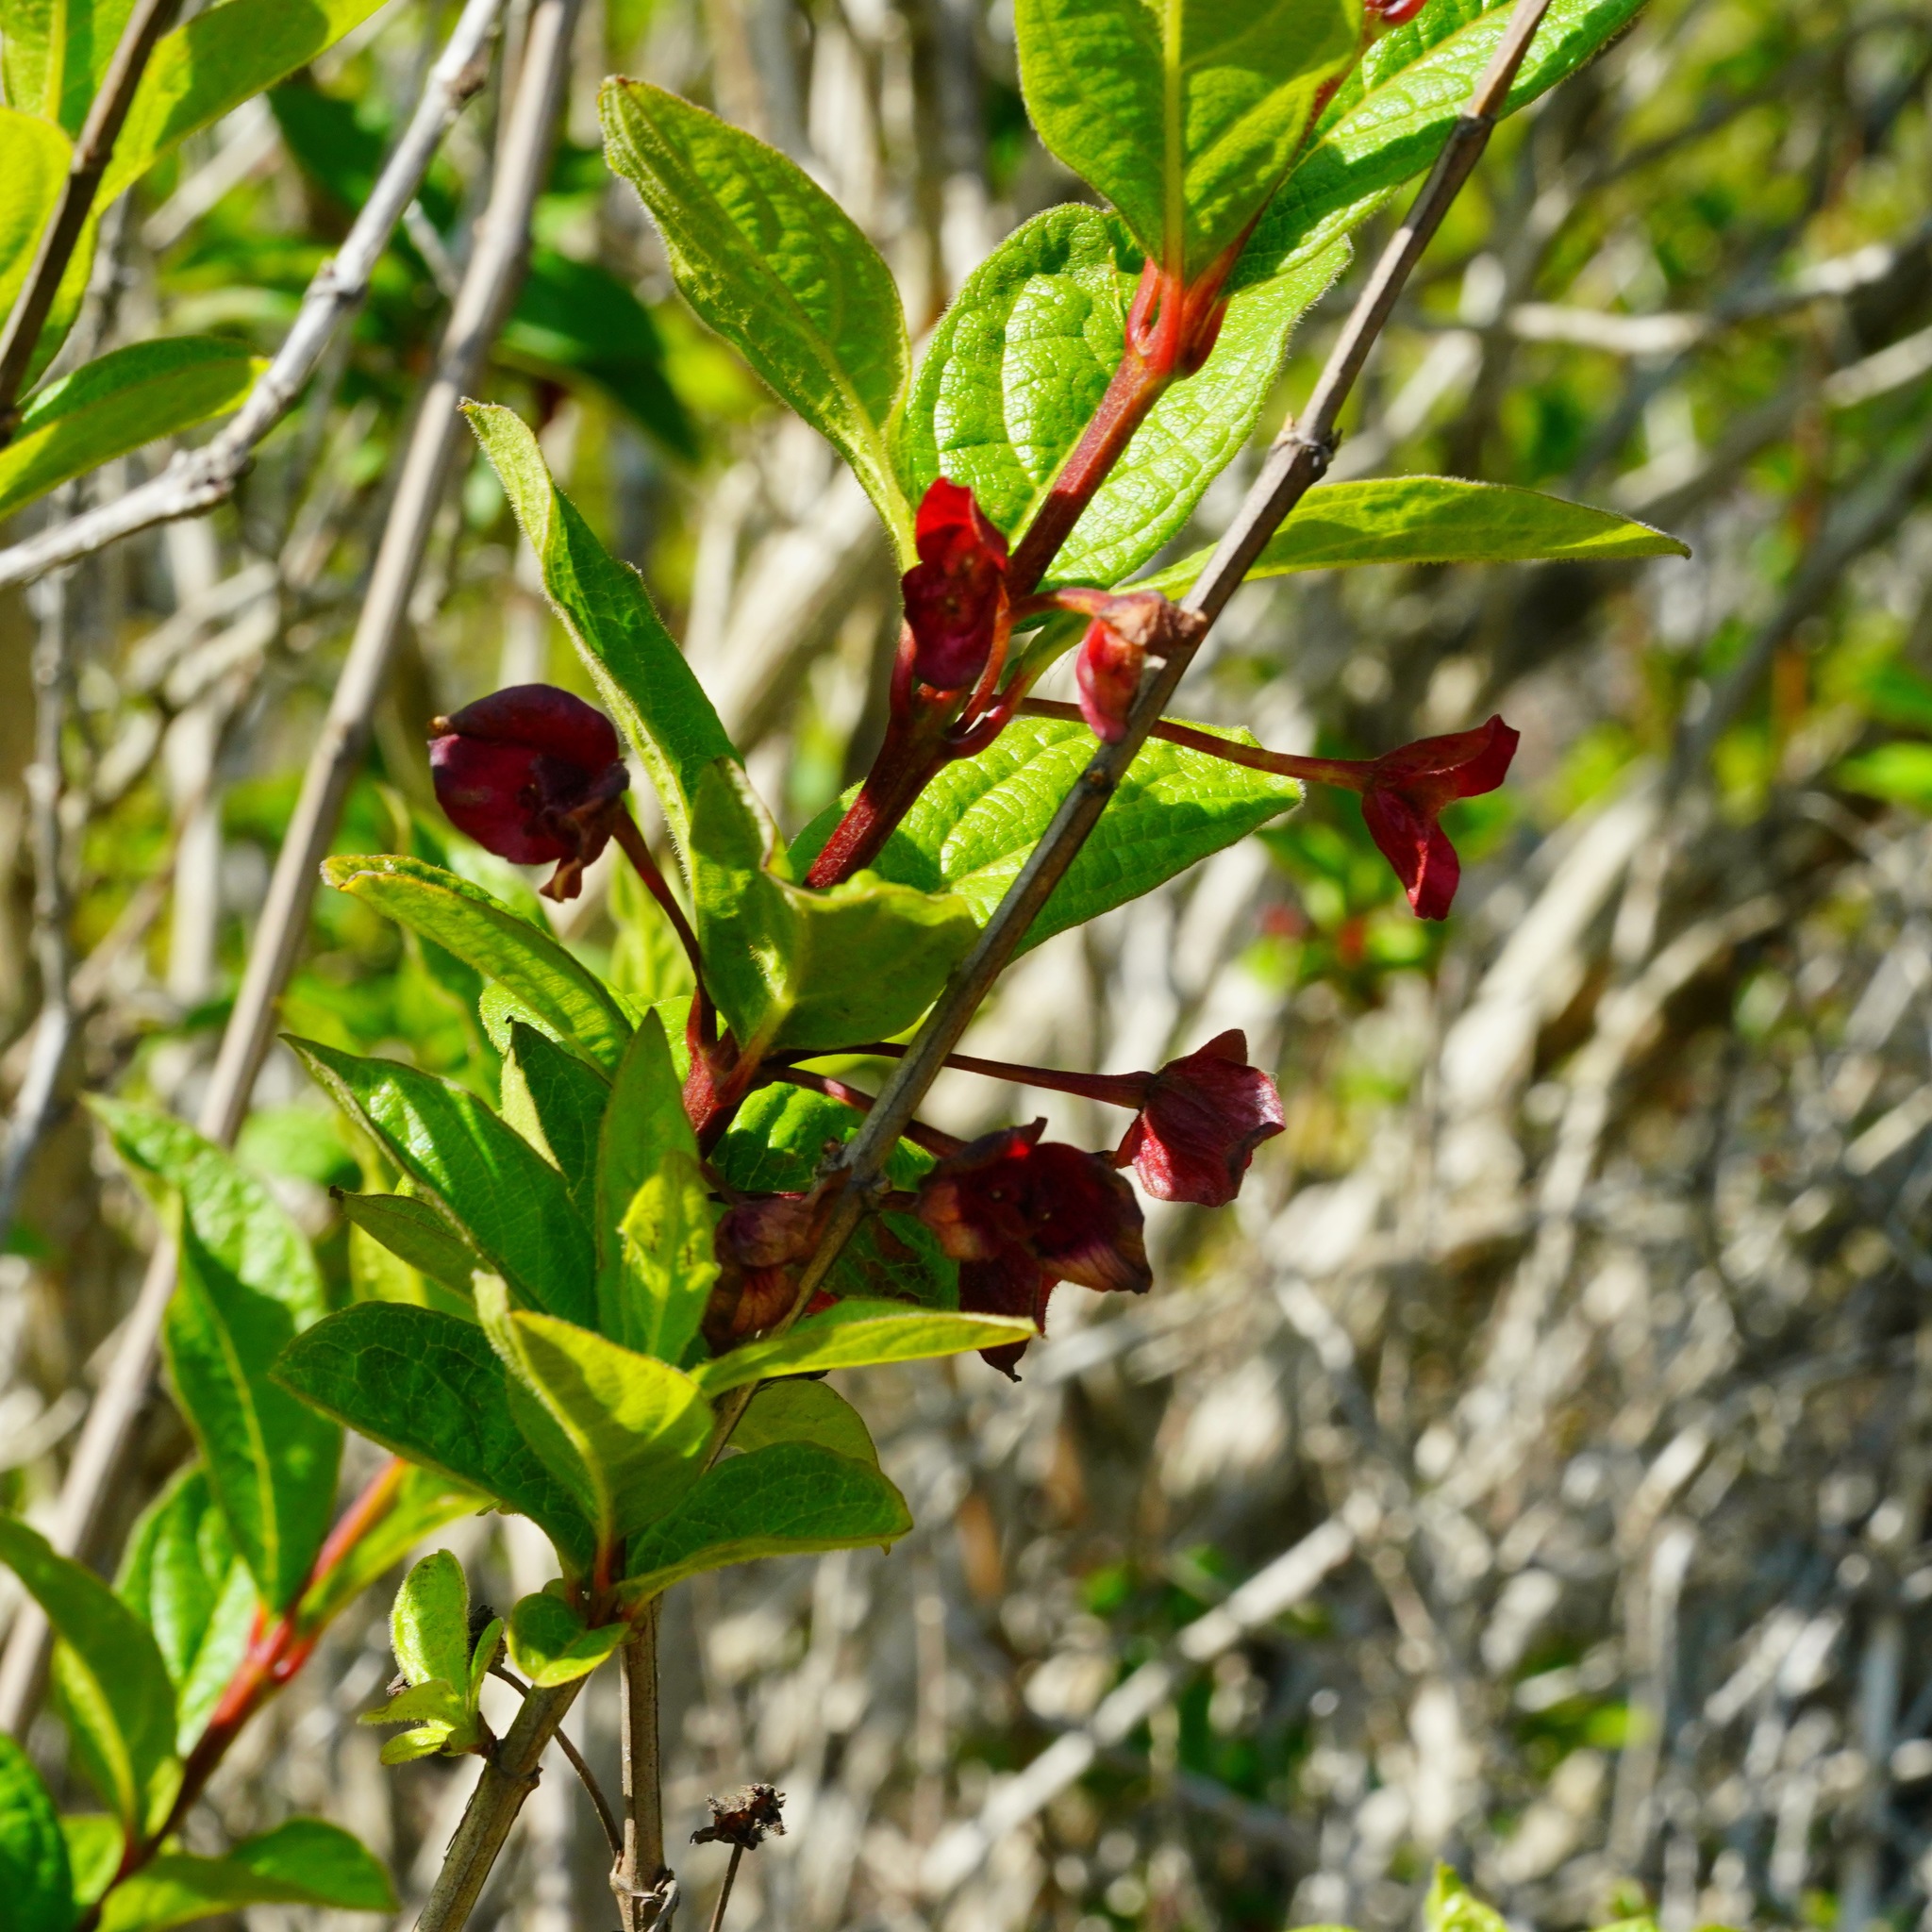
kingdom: Plantae
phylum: Tracheophyta
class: Magnoliopsida
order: Dipsacales
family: Caprifoliaceae
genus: Lonicera
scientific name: Lonicera involucrata
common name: Californian honeysuckle
